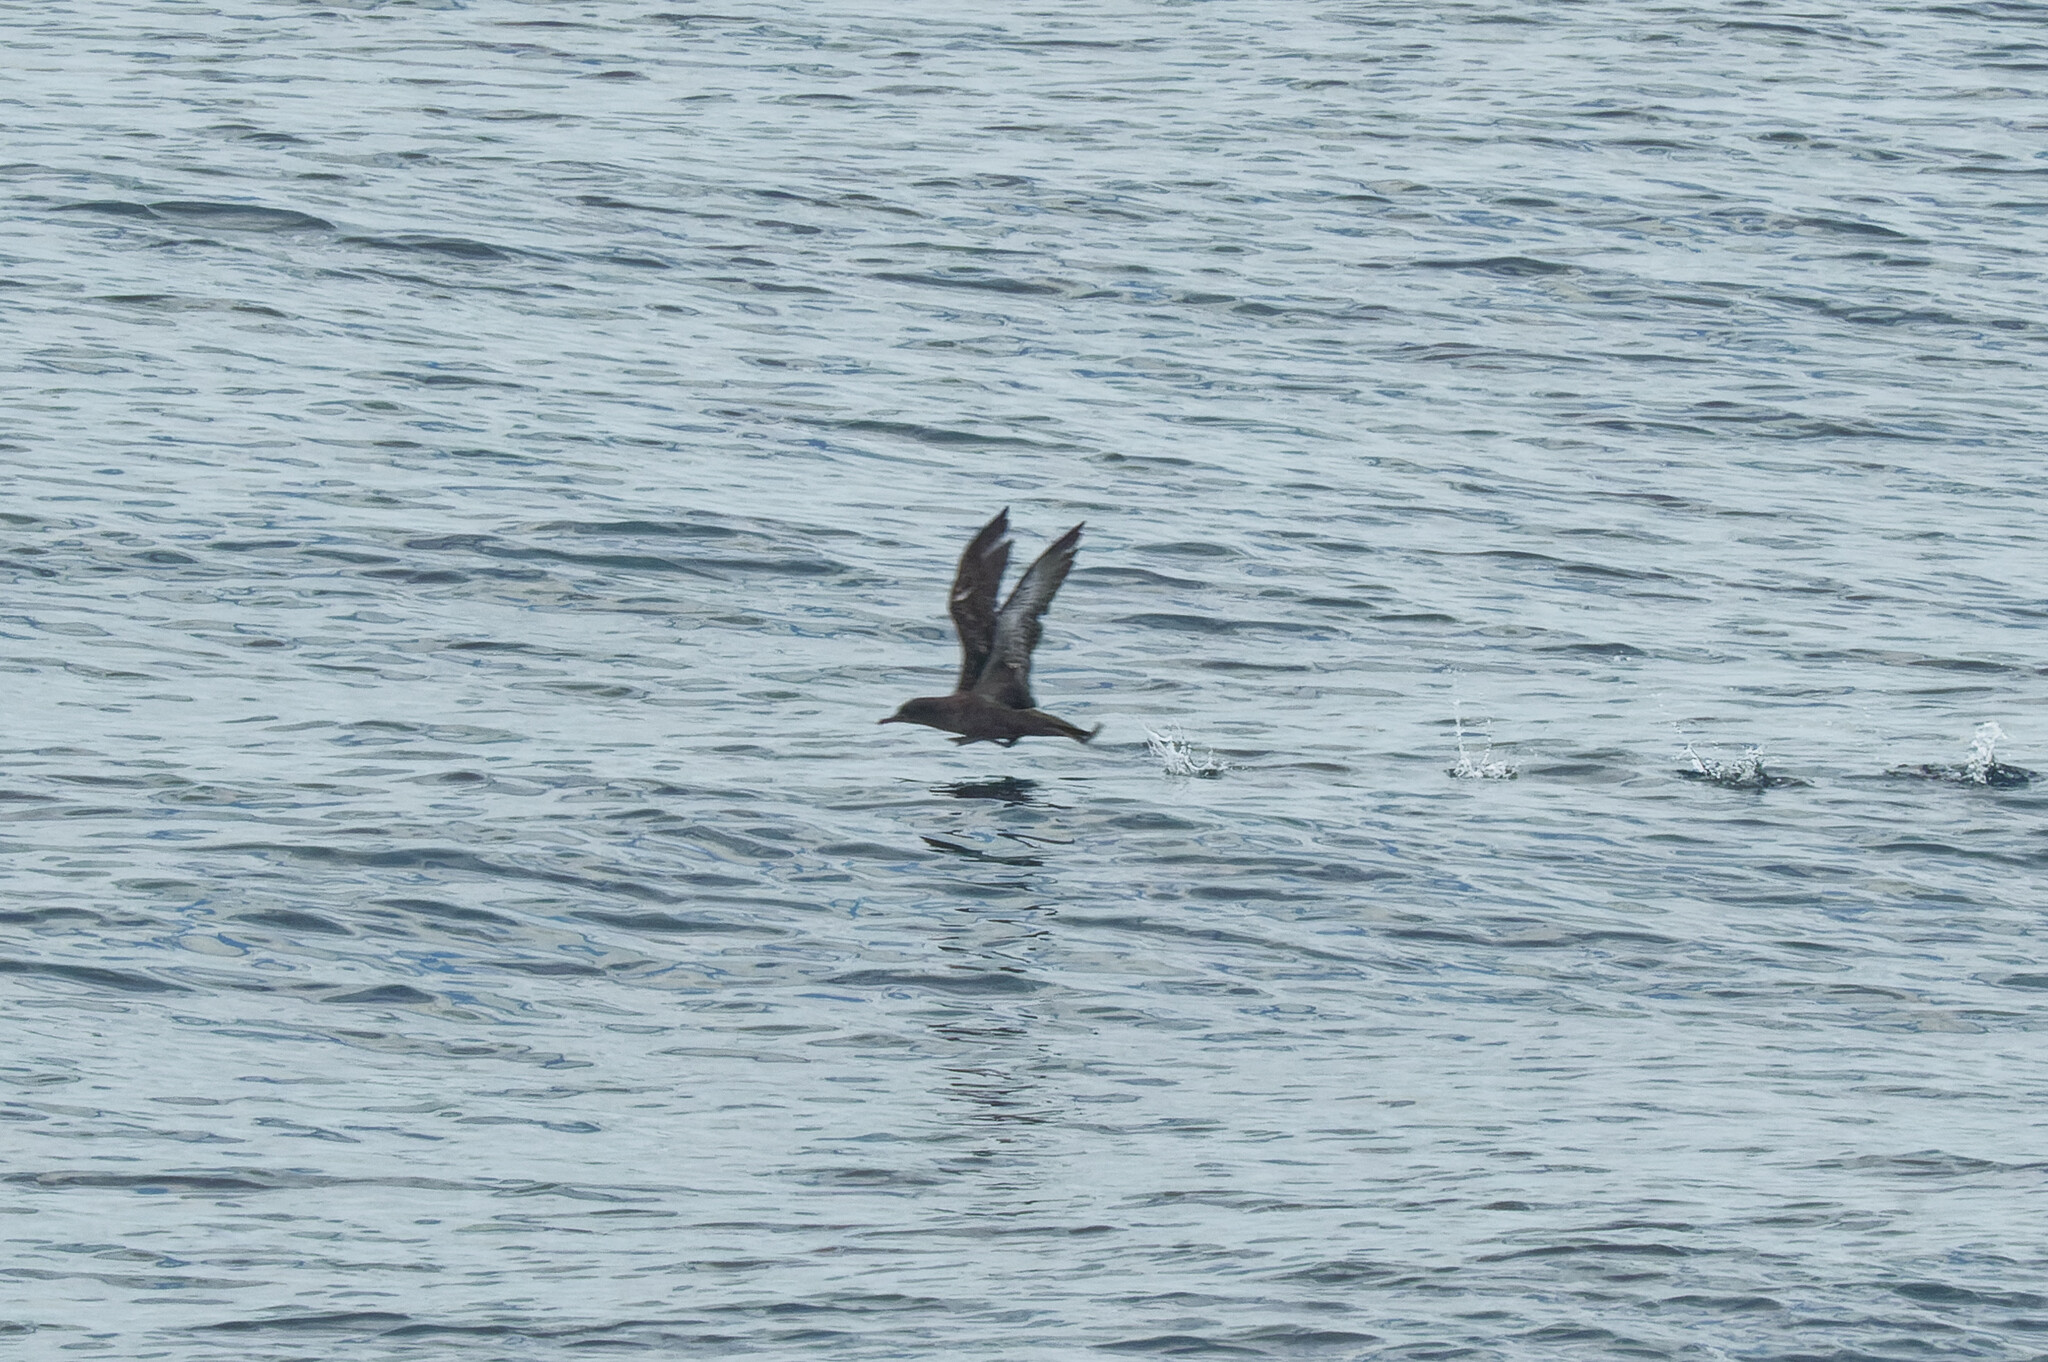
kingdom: Animalia
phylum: Chordata
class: Aves
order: Procellariiformes
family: Procellariidae
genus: Puffinus
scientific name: Puffinus griseus
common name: Sooty shearwater
